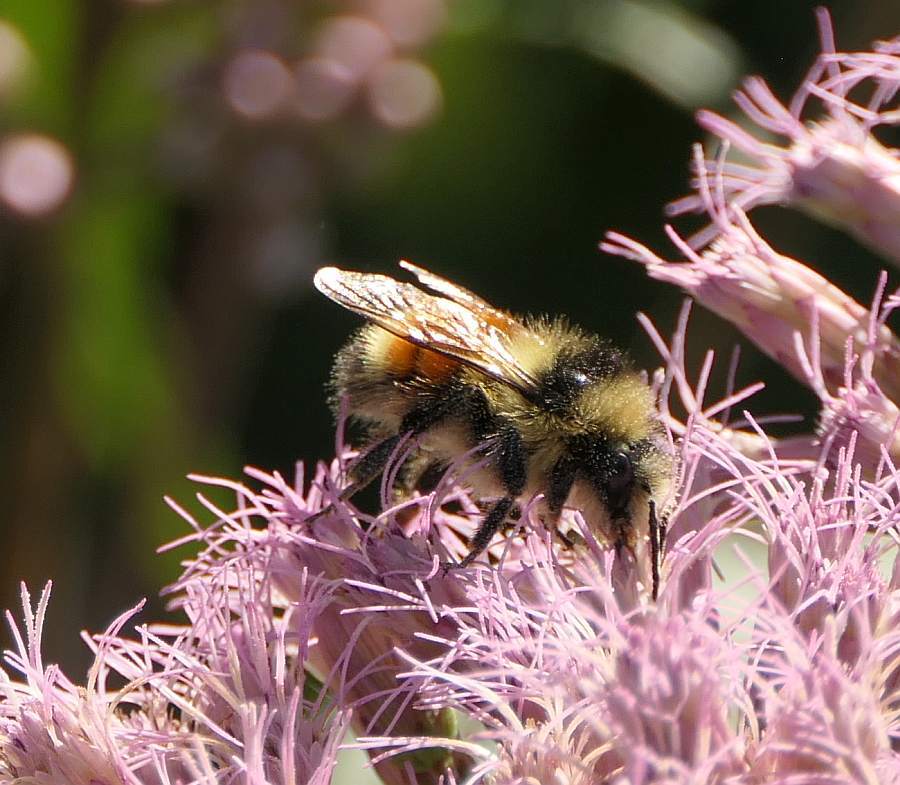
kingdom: Animalia
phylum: Arthropoda
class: Insecta
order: Hymenoptera
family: Apidae
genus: Bombus
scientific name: Bombus ternarius
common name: Tri-colored bumble bee
